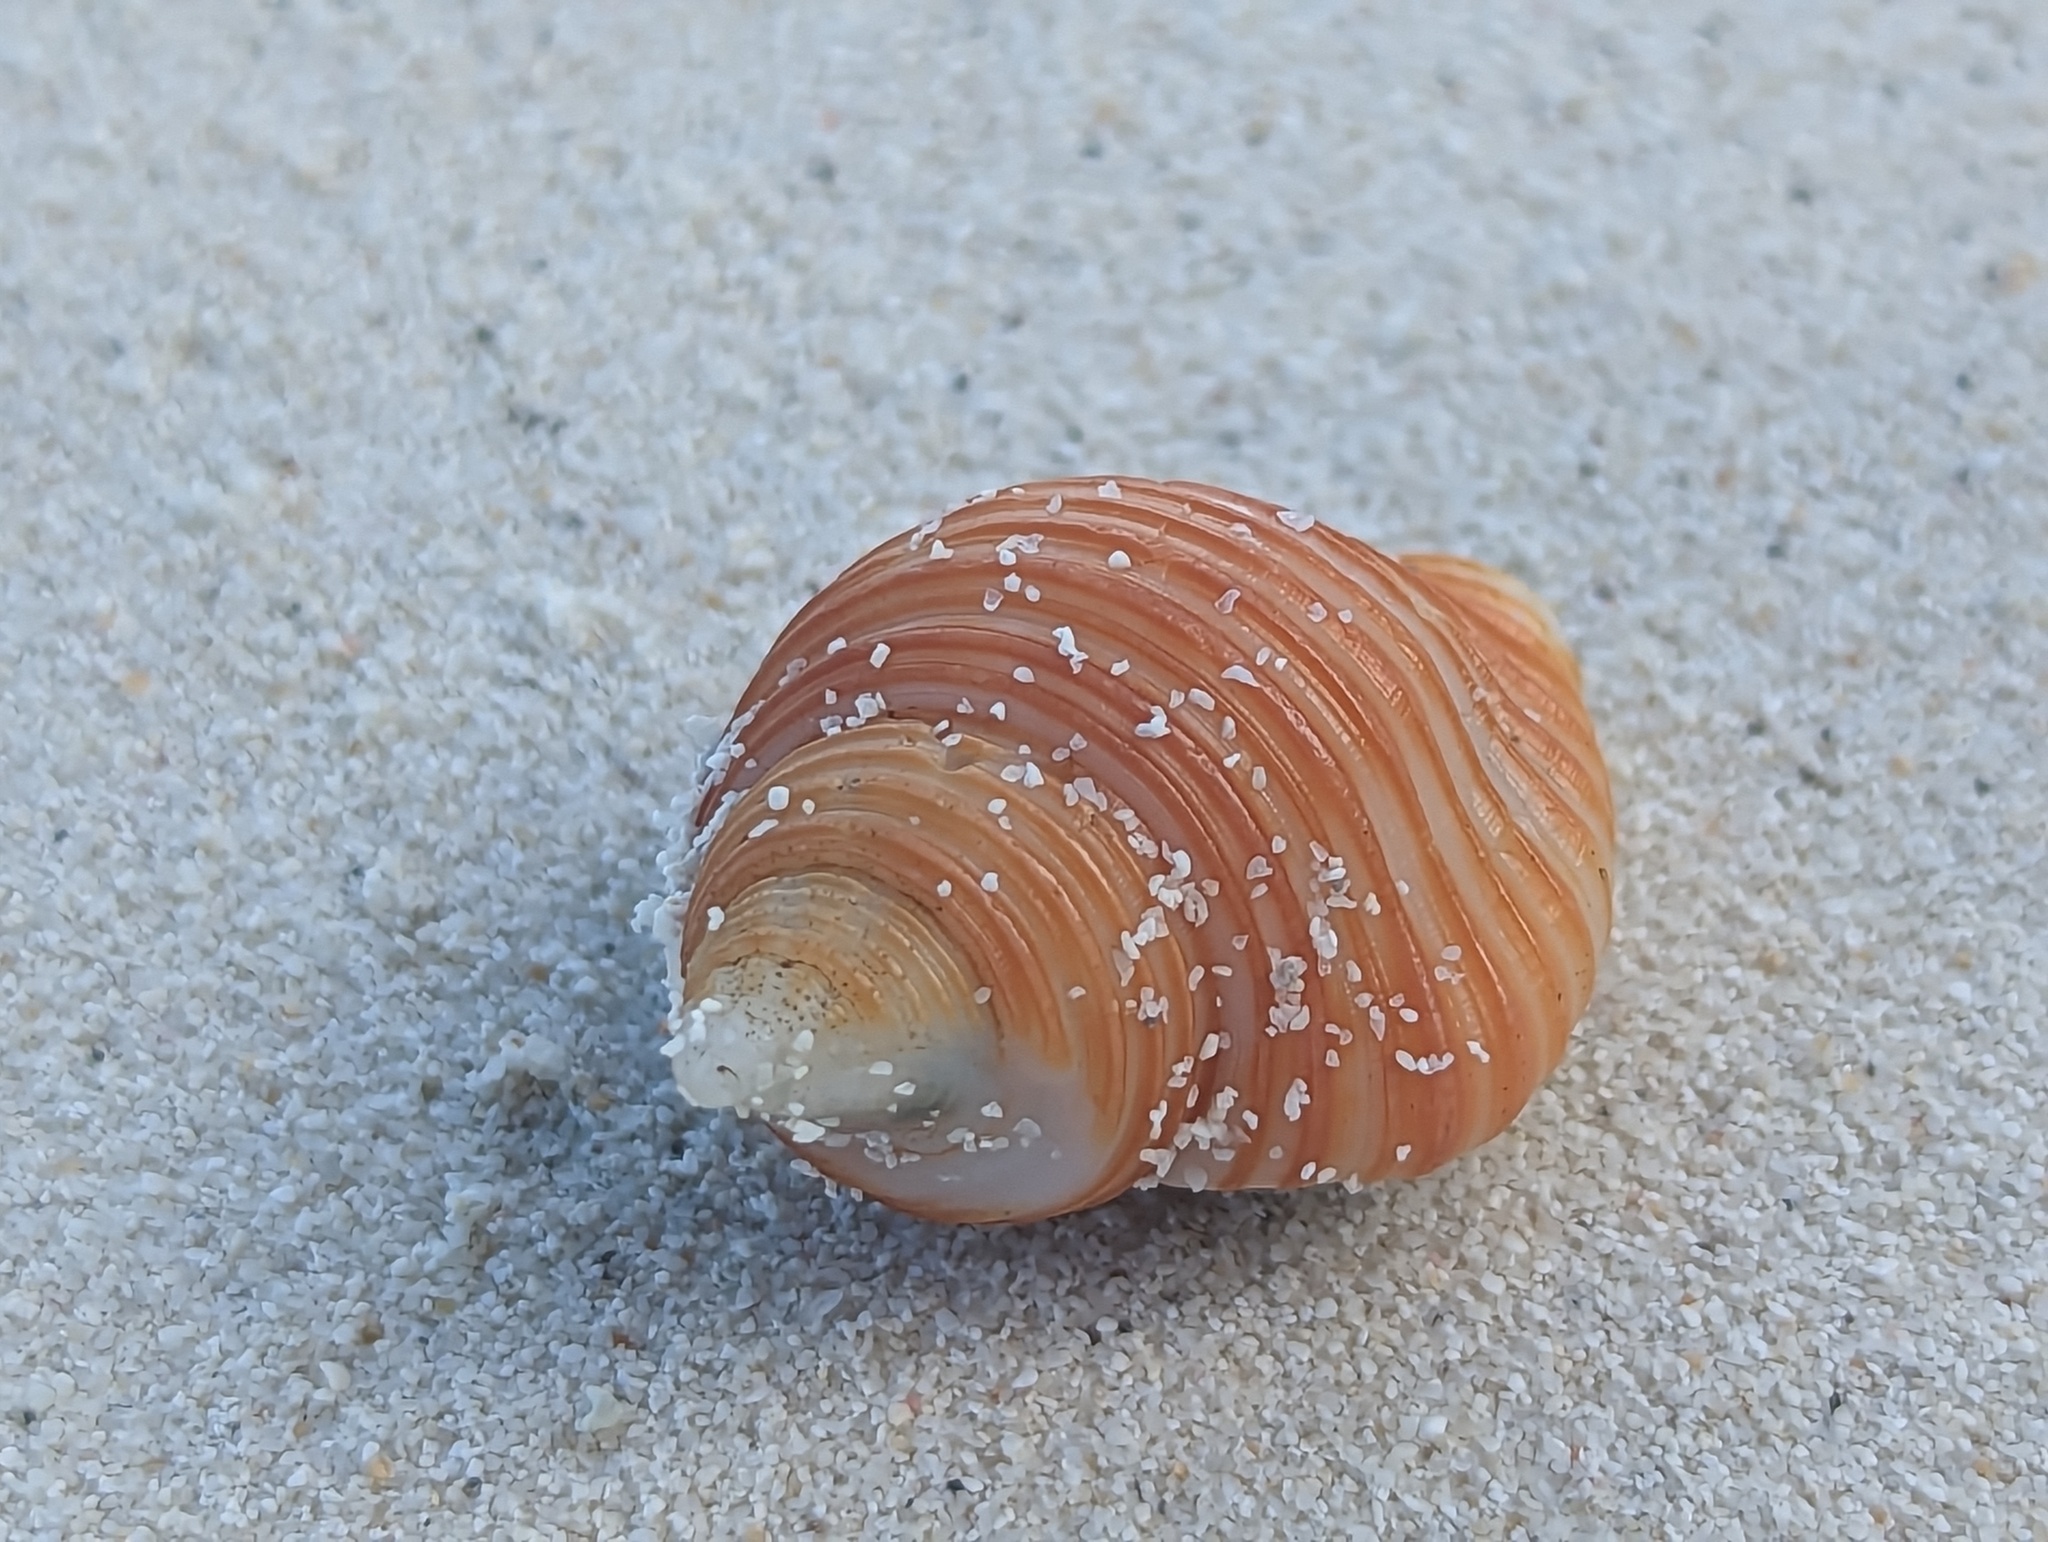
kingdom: Animalia
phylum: Mollusca
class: Gastropoda
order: Neogastropoda
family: Pisaniidae
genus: Pollia
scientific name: Pollia undosa
